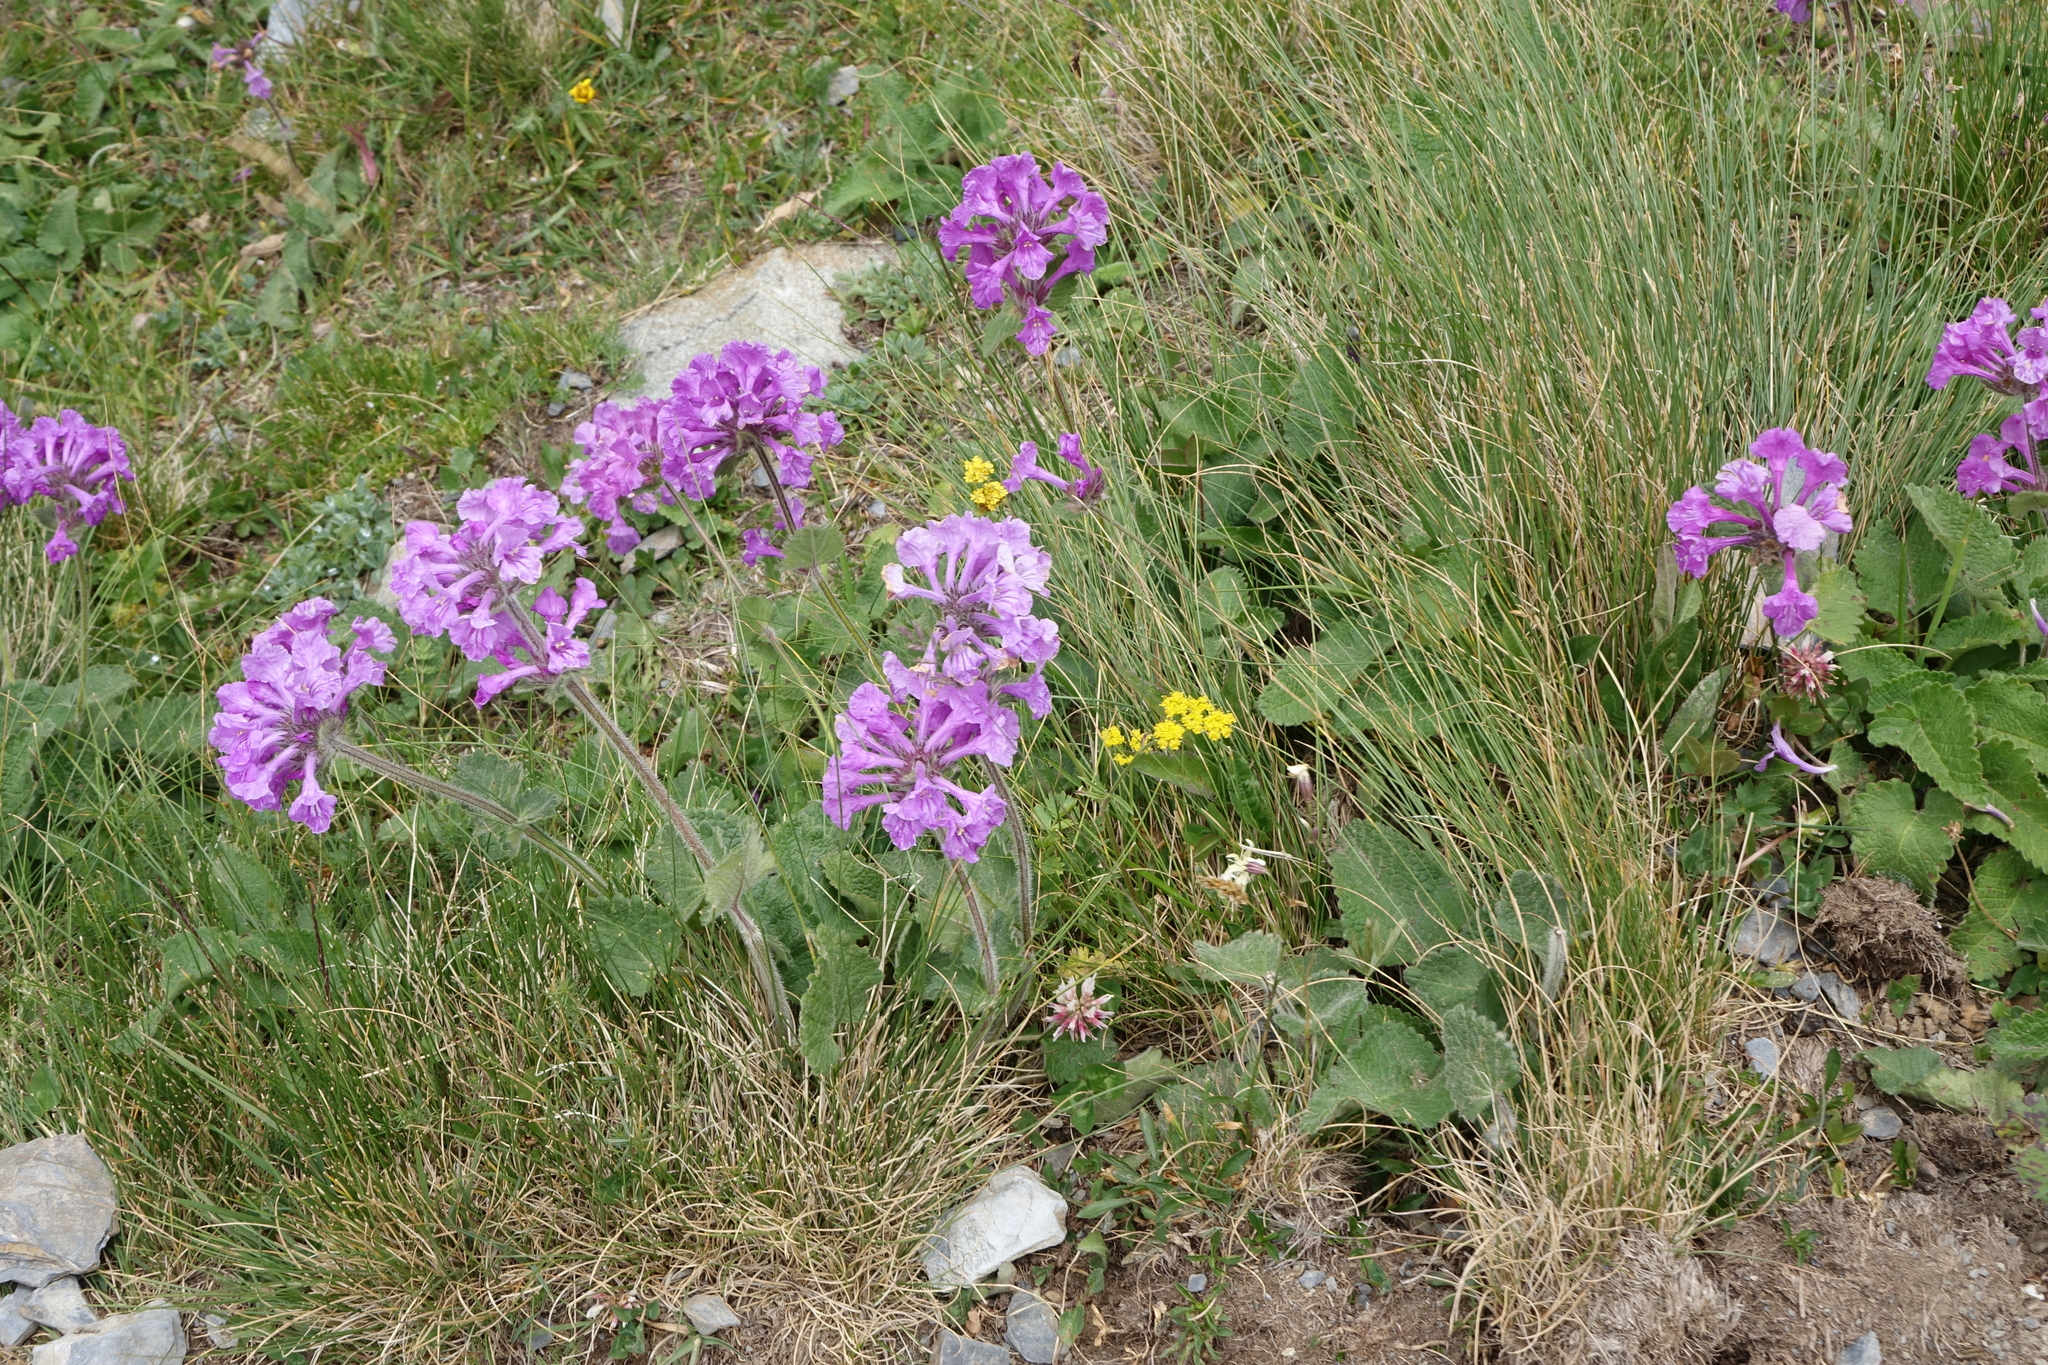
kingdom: Plantae
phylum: Tracheophyta
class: Magnoliopsida
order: Lamiales
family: Lamiaceae
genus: Betonica
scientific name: Betonica macrantha
